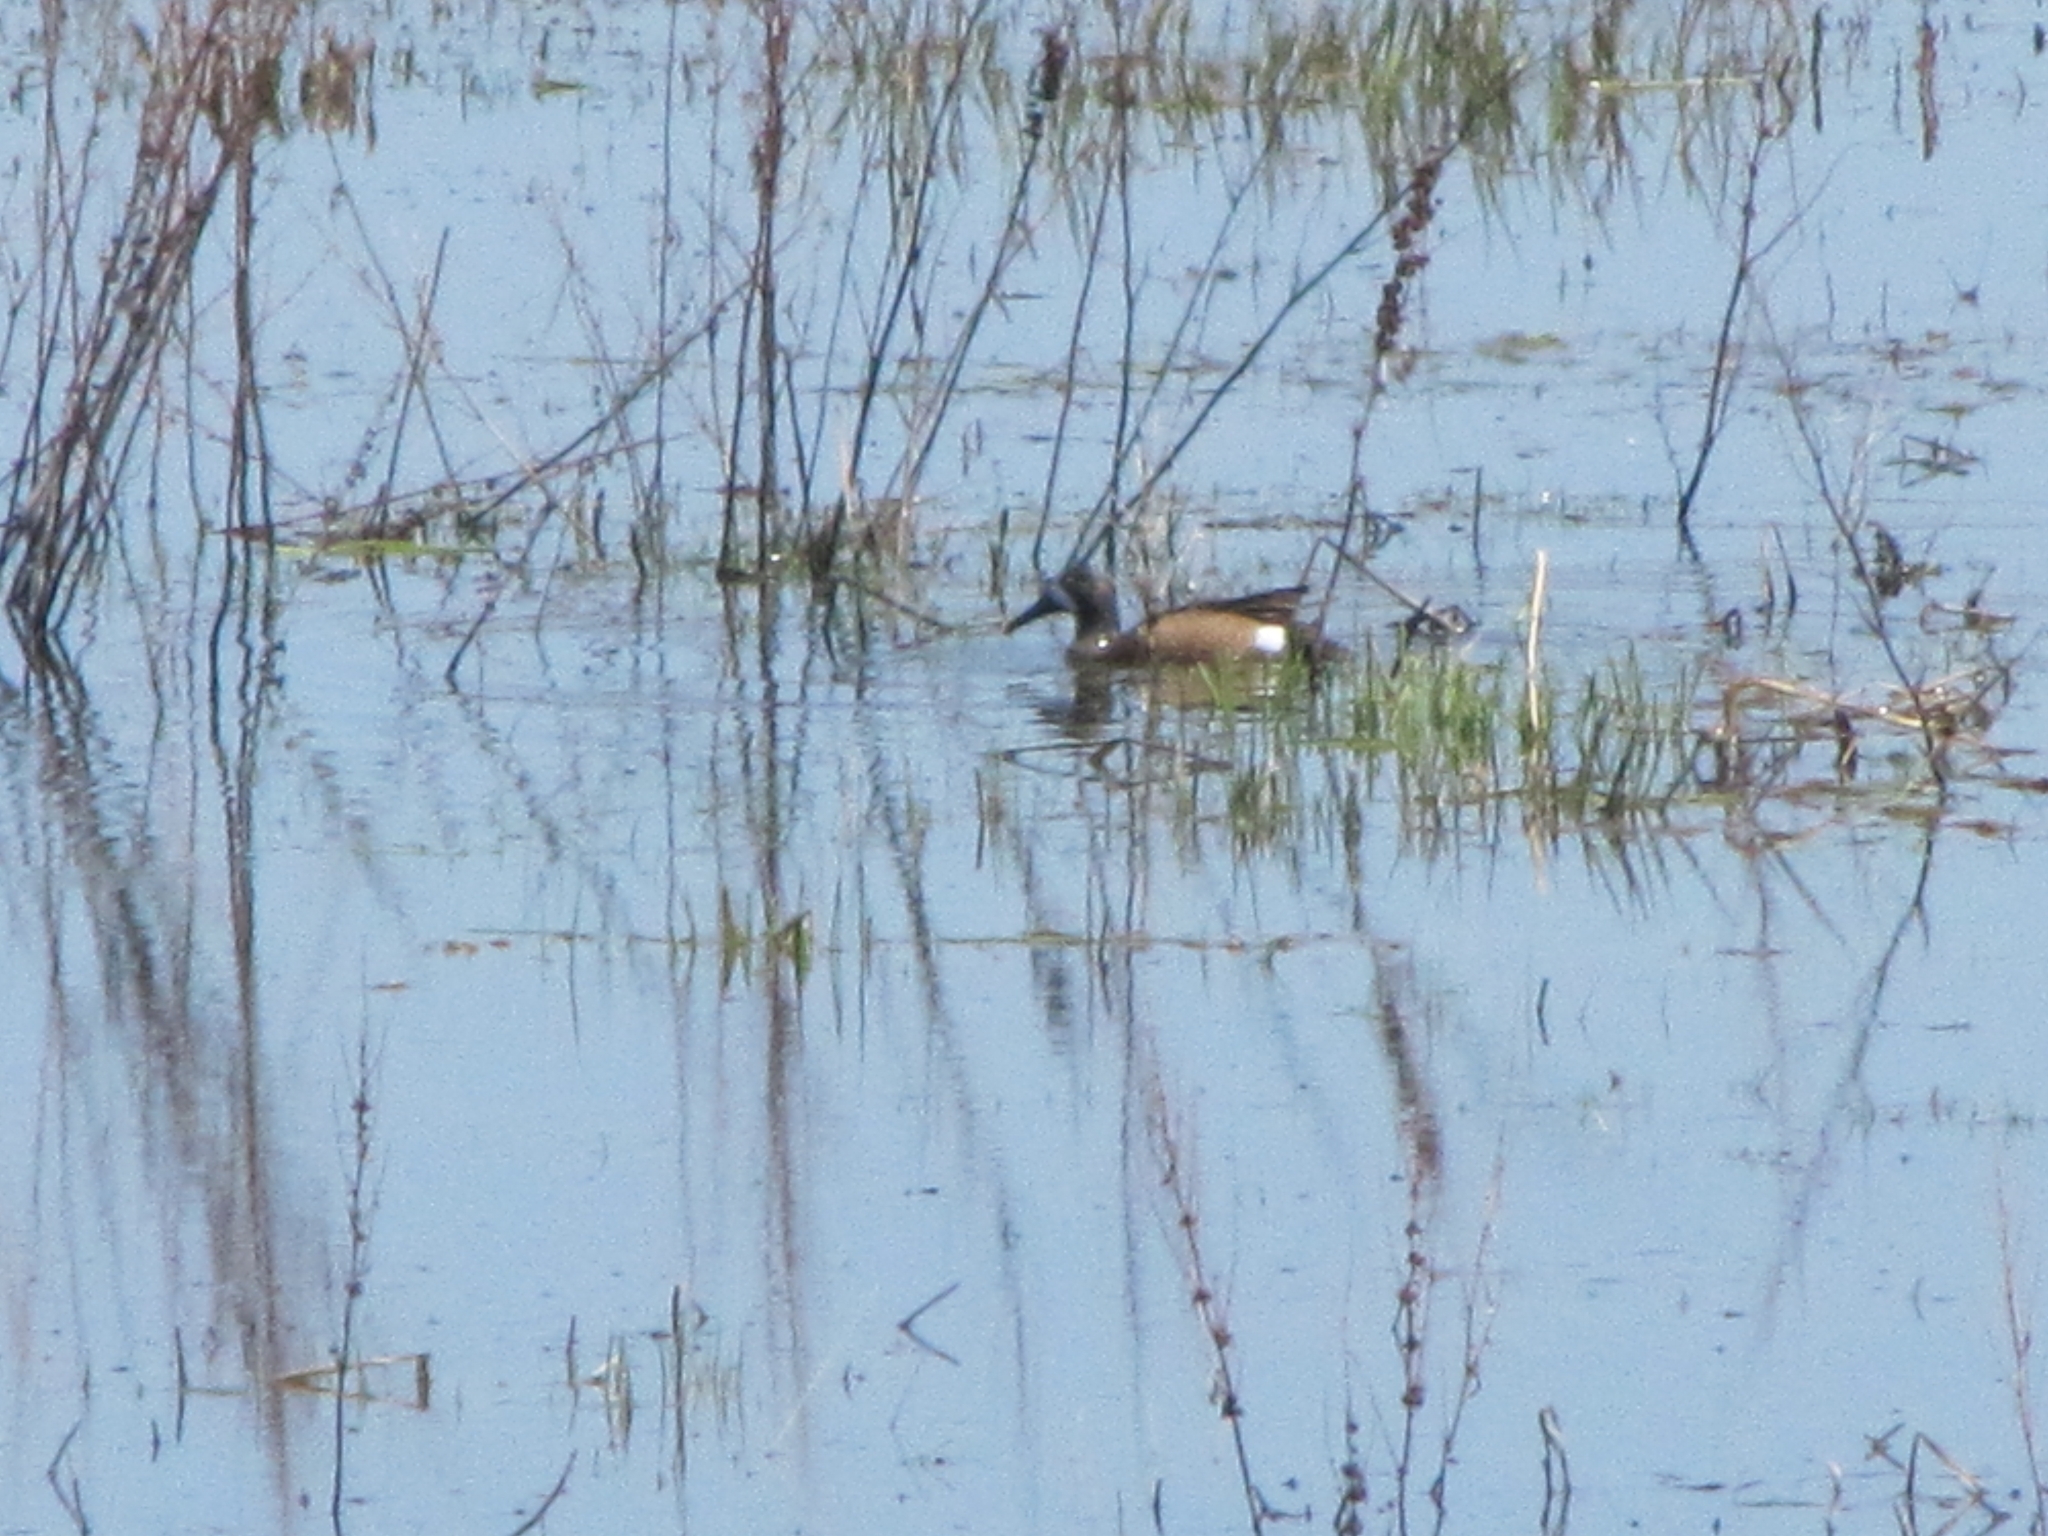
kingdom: Animalia
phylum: Chordata
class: Aves
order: Anseriformes
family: Anatidae
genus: Spatula
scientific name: Spatula discors
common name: Blue-winged teal
